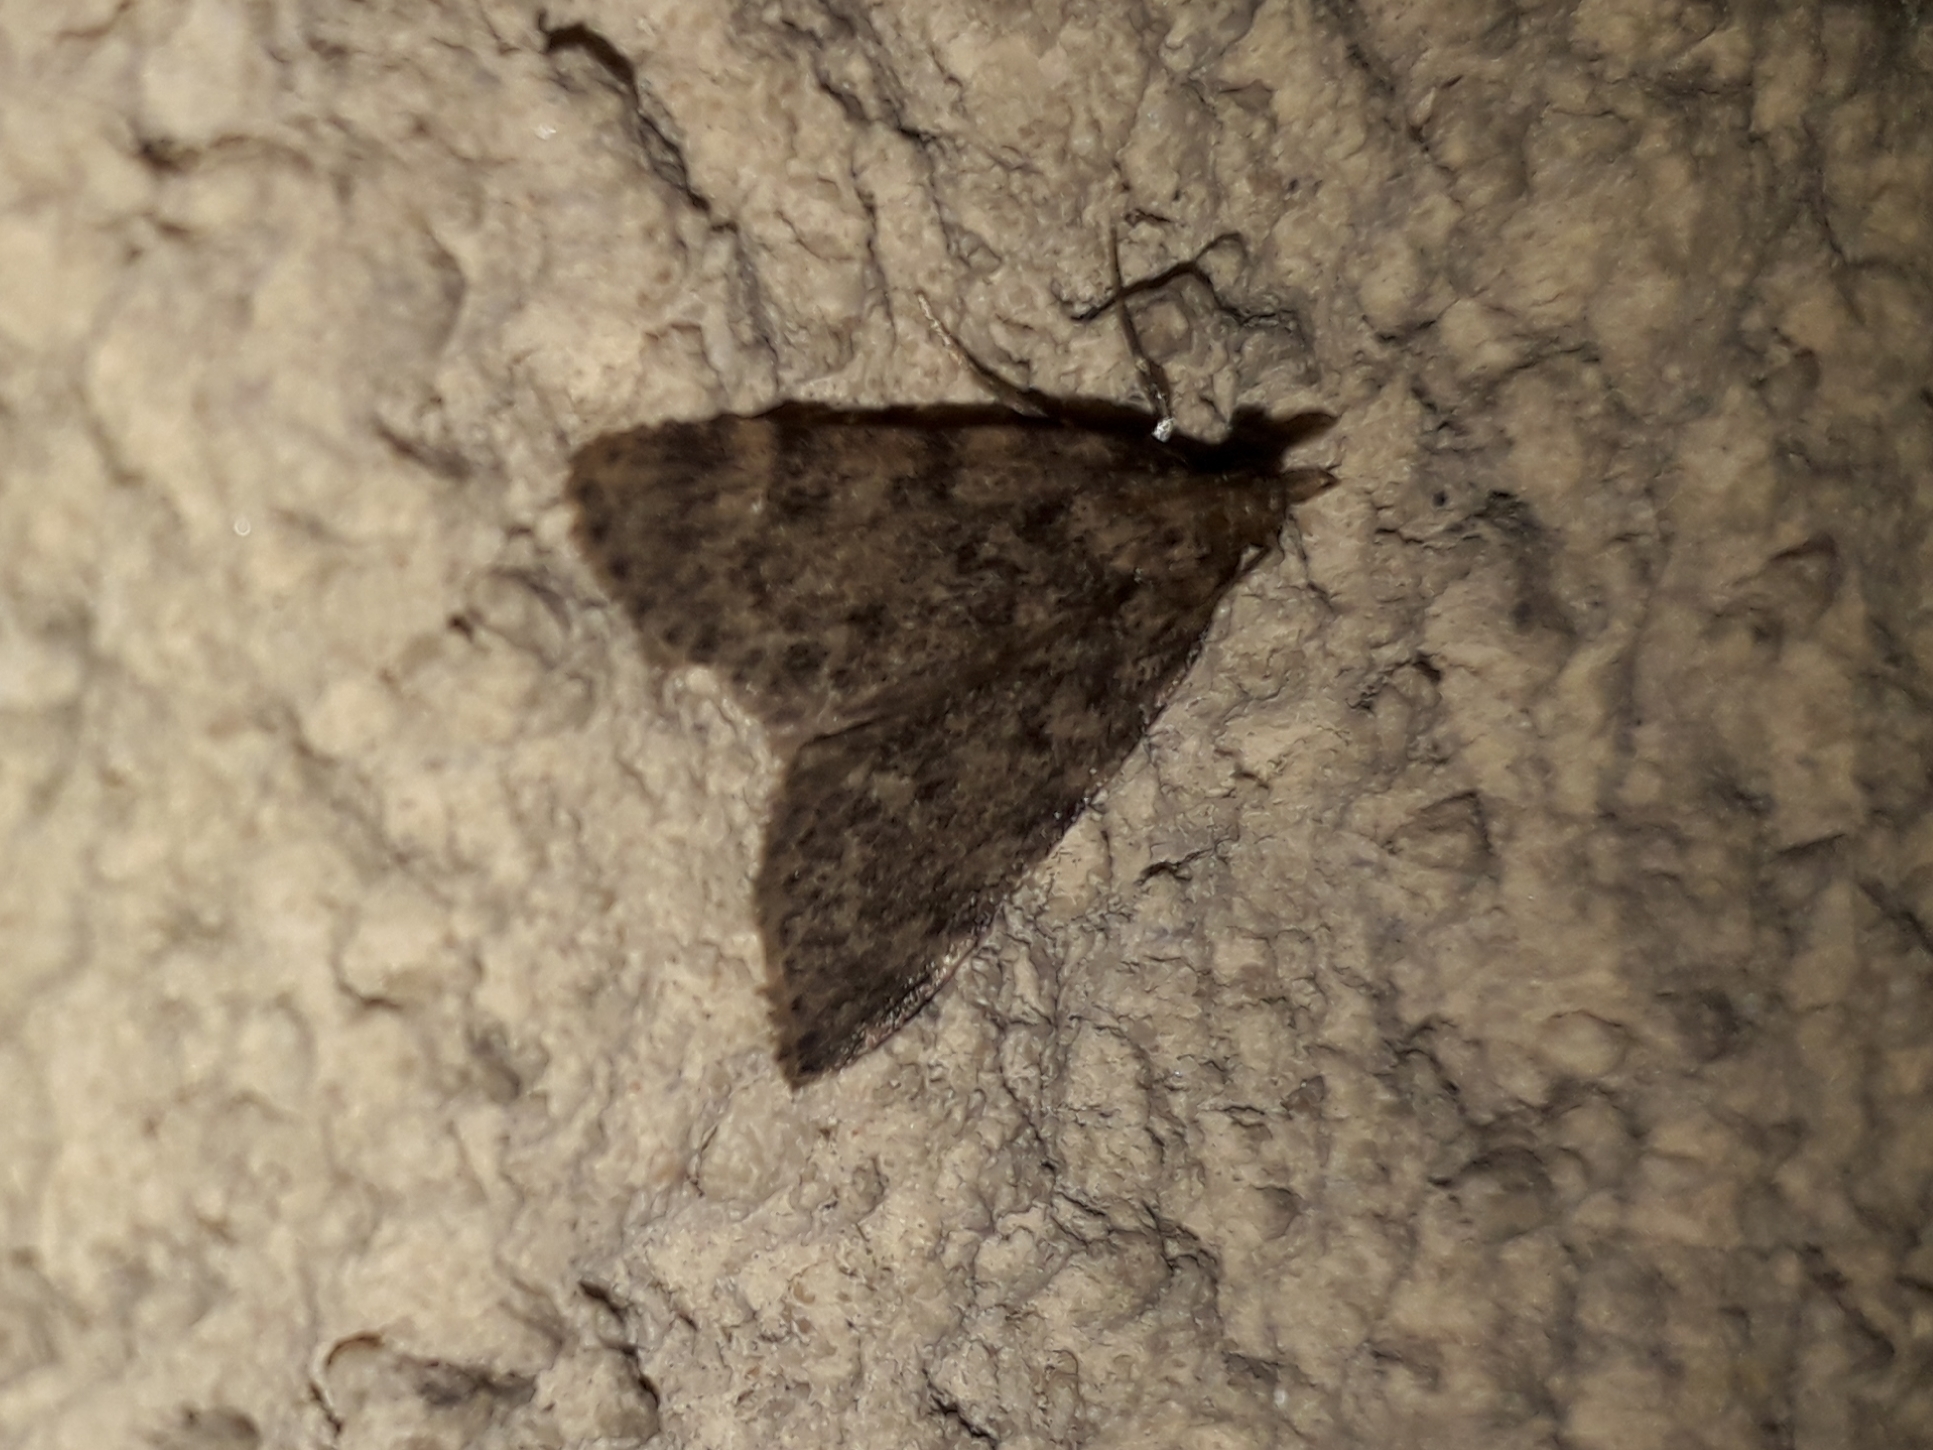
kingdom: Animalia
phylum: Arthropoda
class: Insecta
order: Lepidoptera
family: Pyralidae
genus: Aglossa
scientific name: Aglossa pinguinalis
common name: Large tabby
